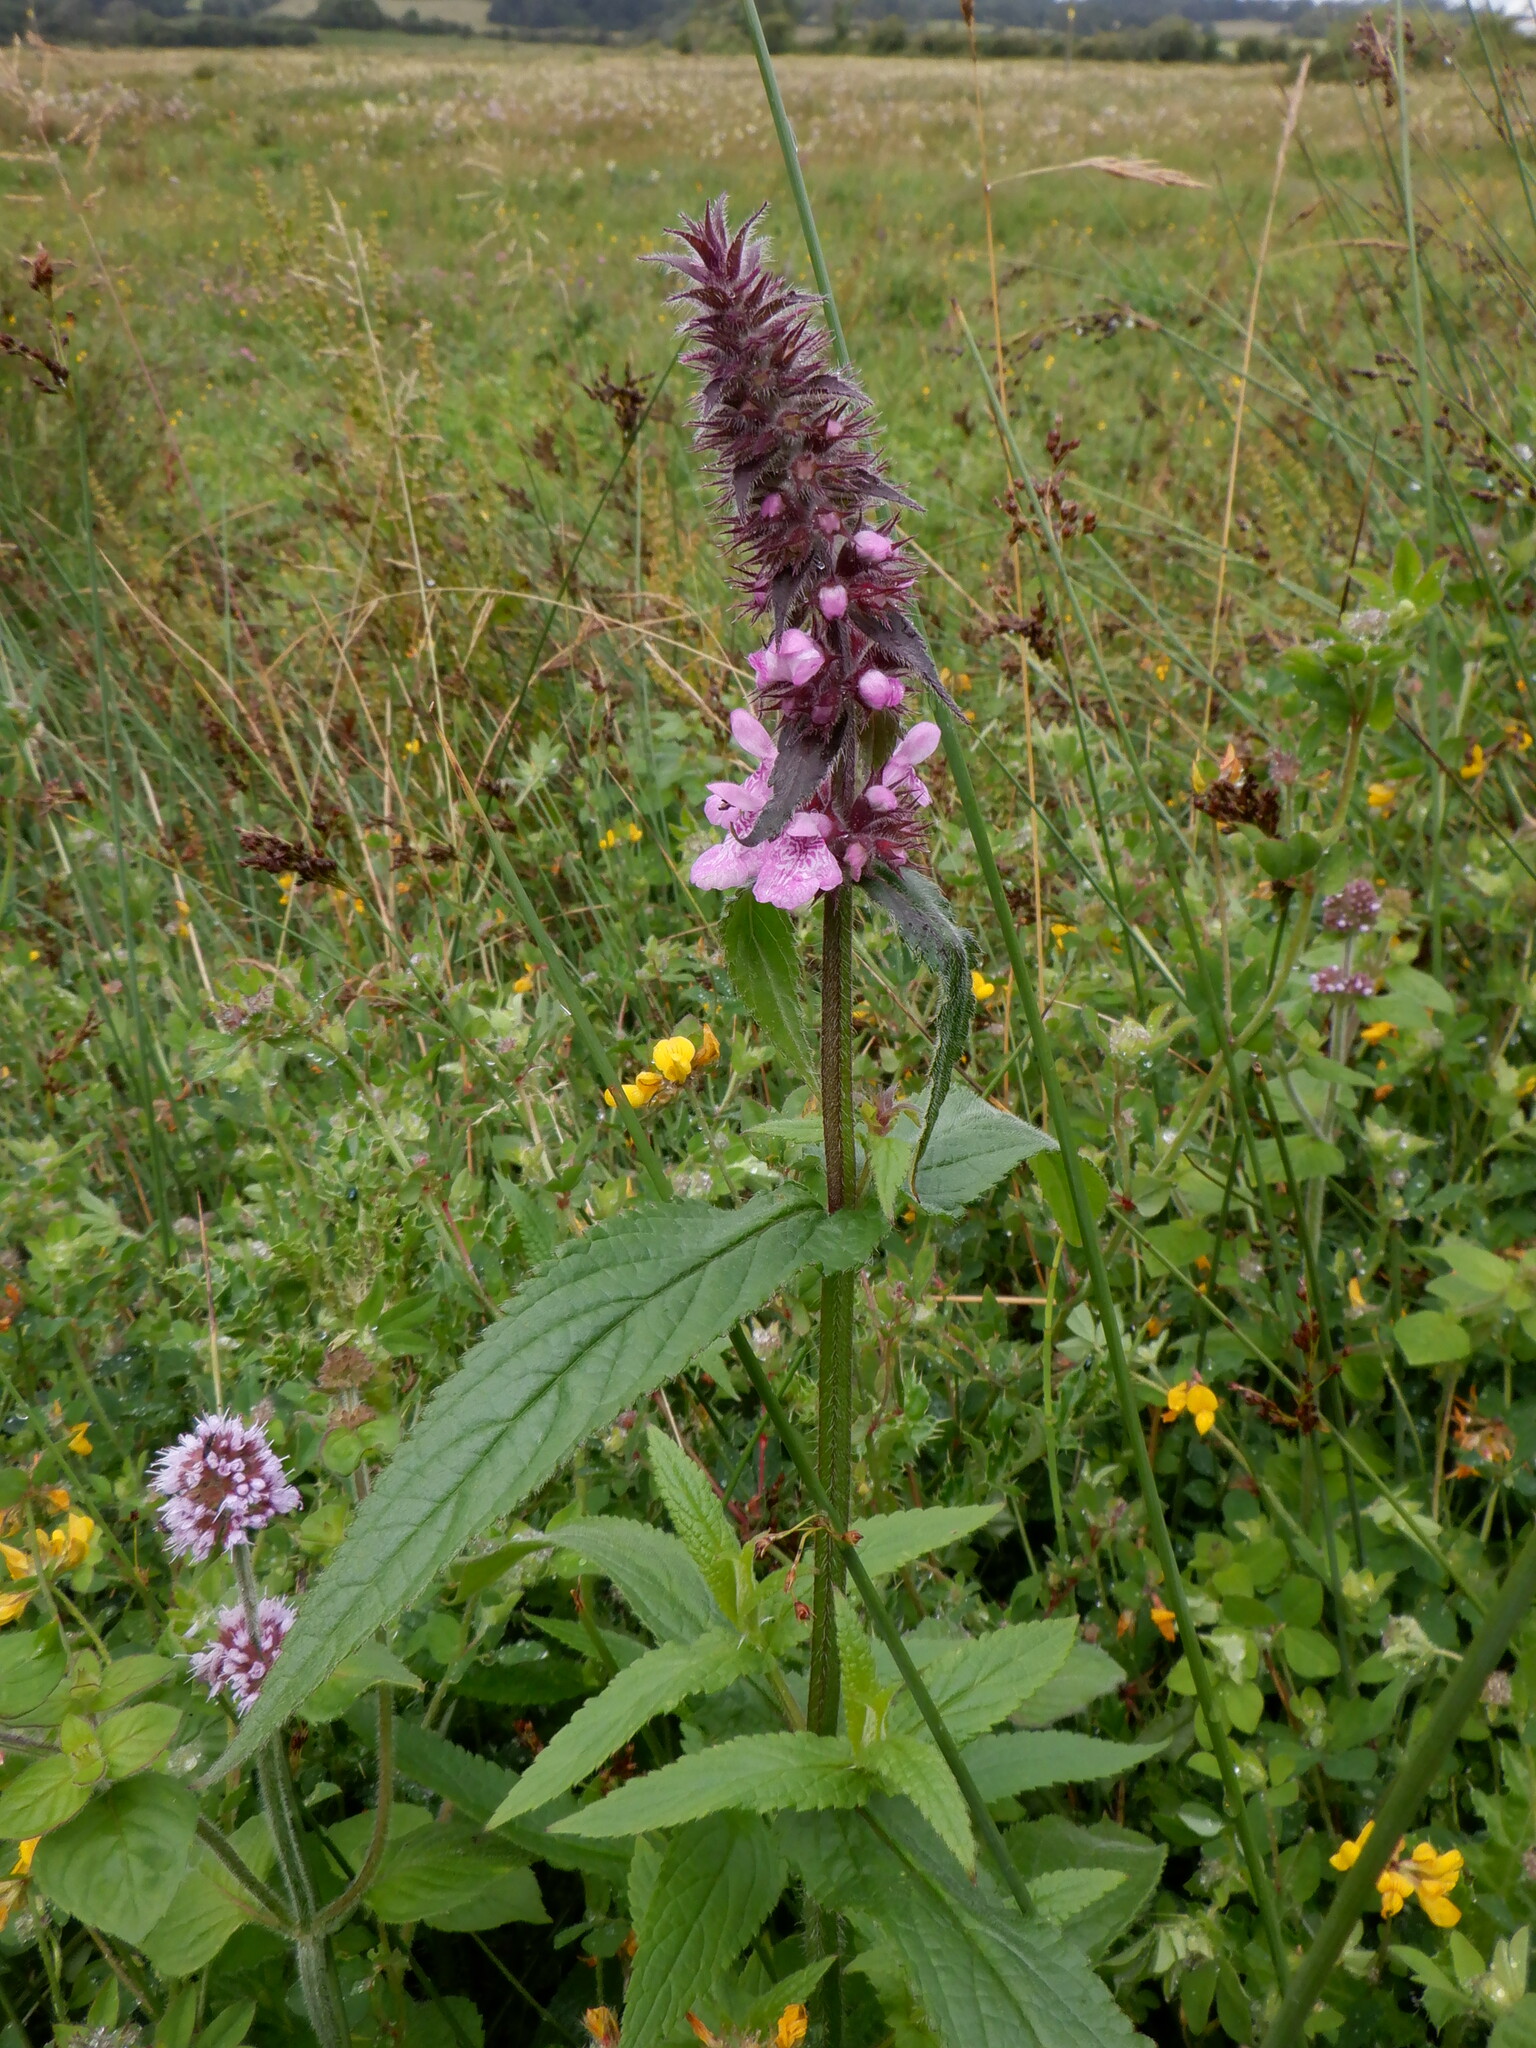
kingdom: Plantae
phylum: Tracheophyta
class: Magnoliopsida
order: Lamiales
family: Lamiaceae
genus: Stachys
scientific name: Stachys palustris
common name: Marsh woundwort
